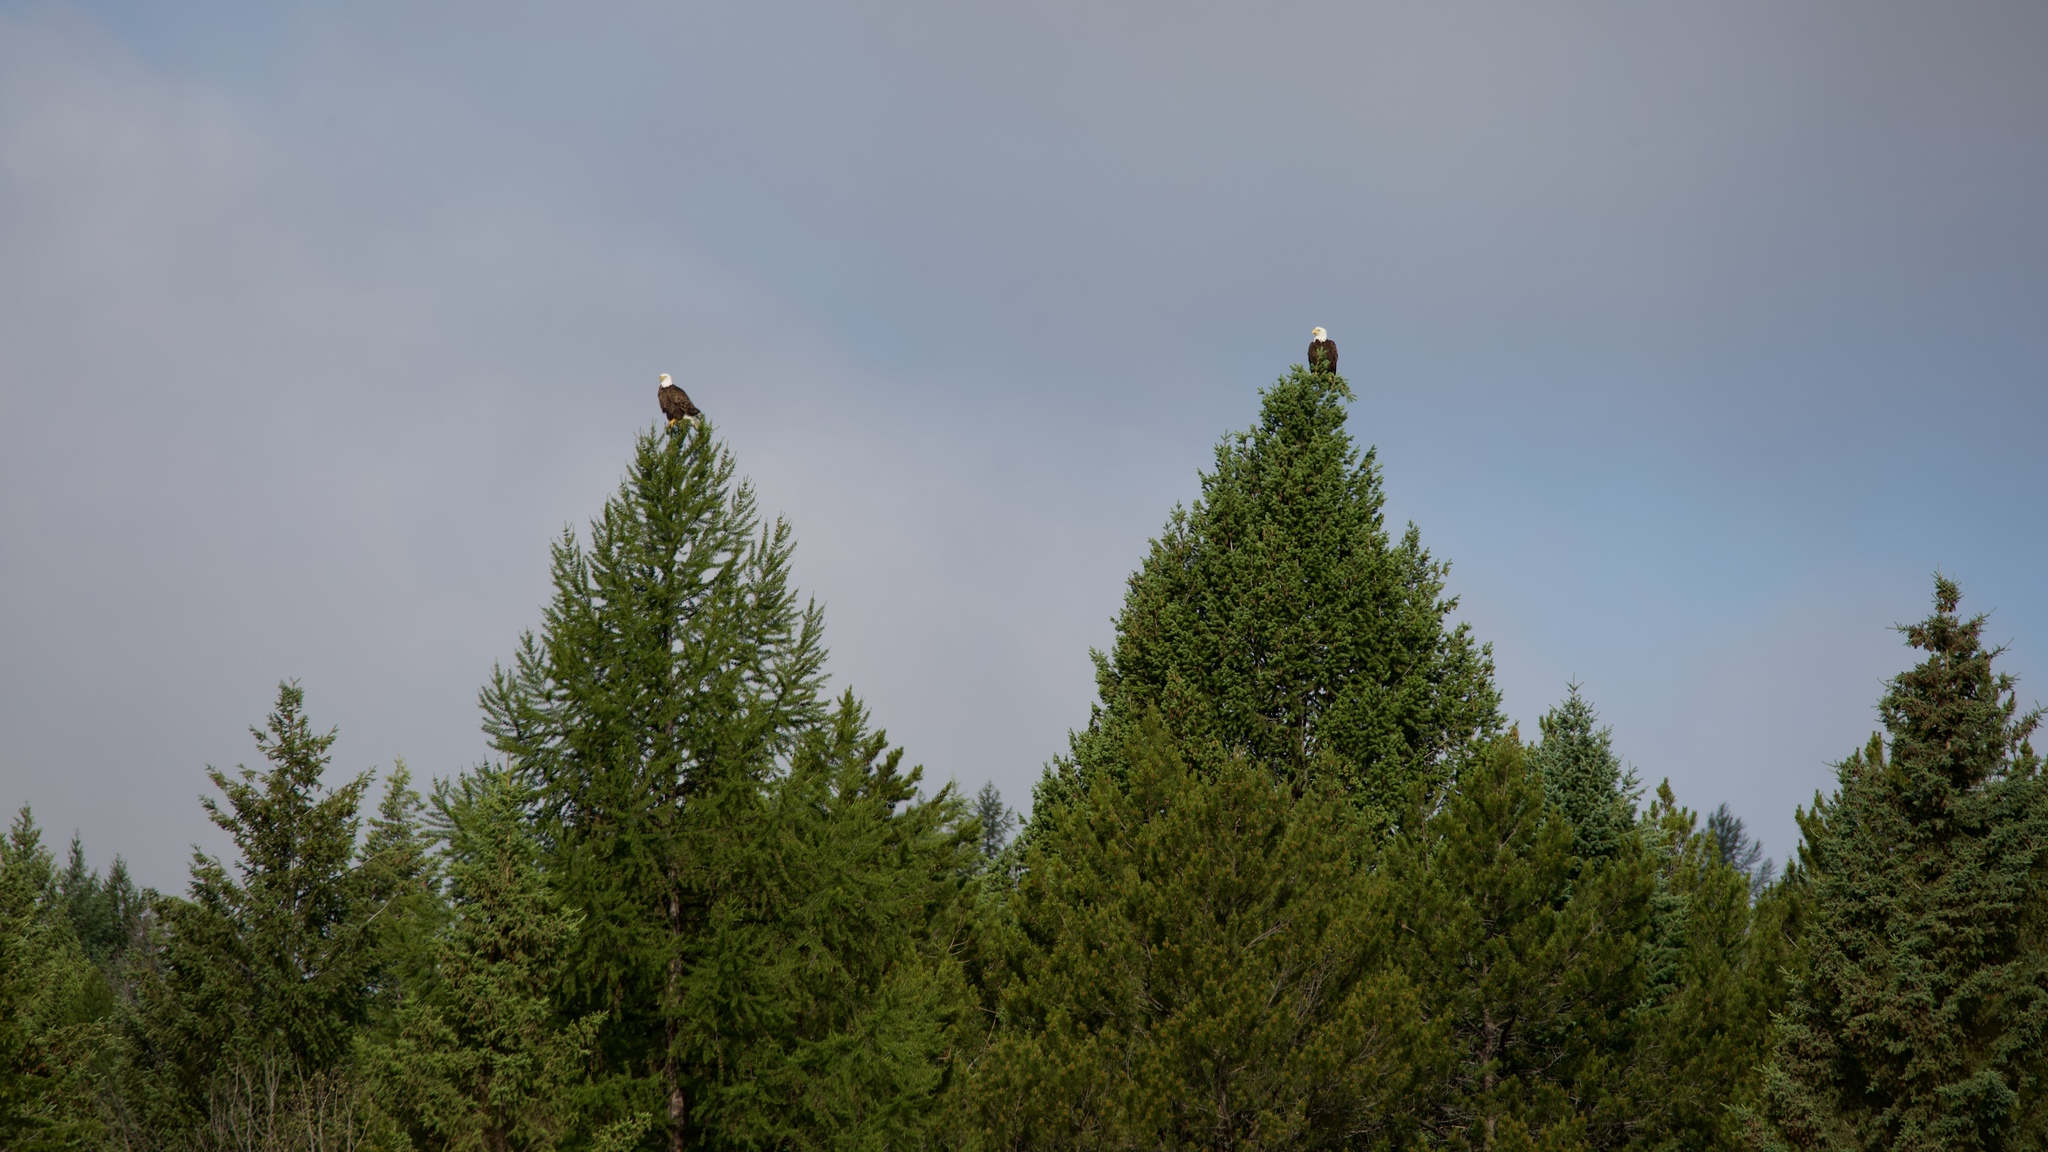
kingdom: Animalia
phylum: Chordata
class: Aves
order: Accipitriformes
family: Accipitridae
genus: Haliaeetus
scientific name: Haliaeetus leucocephalus
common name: Bald eagle
